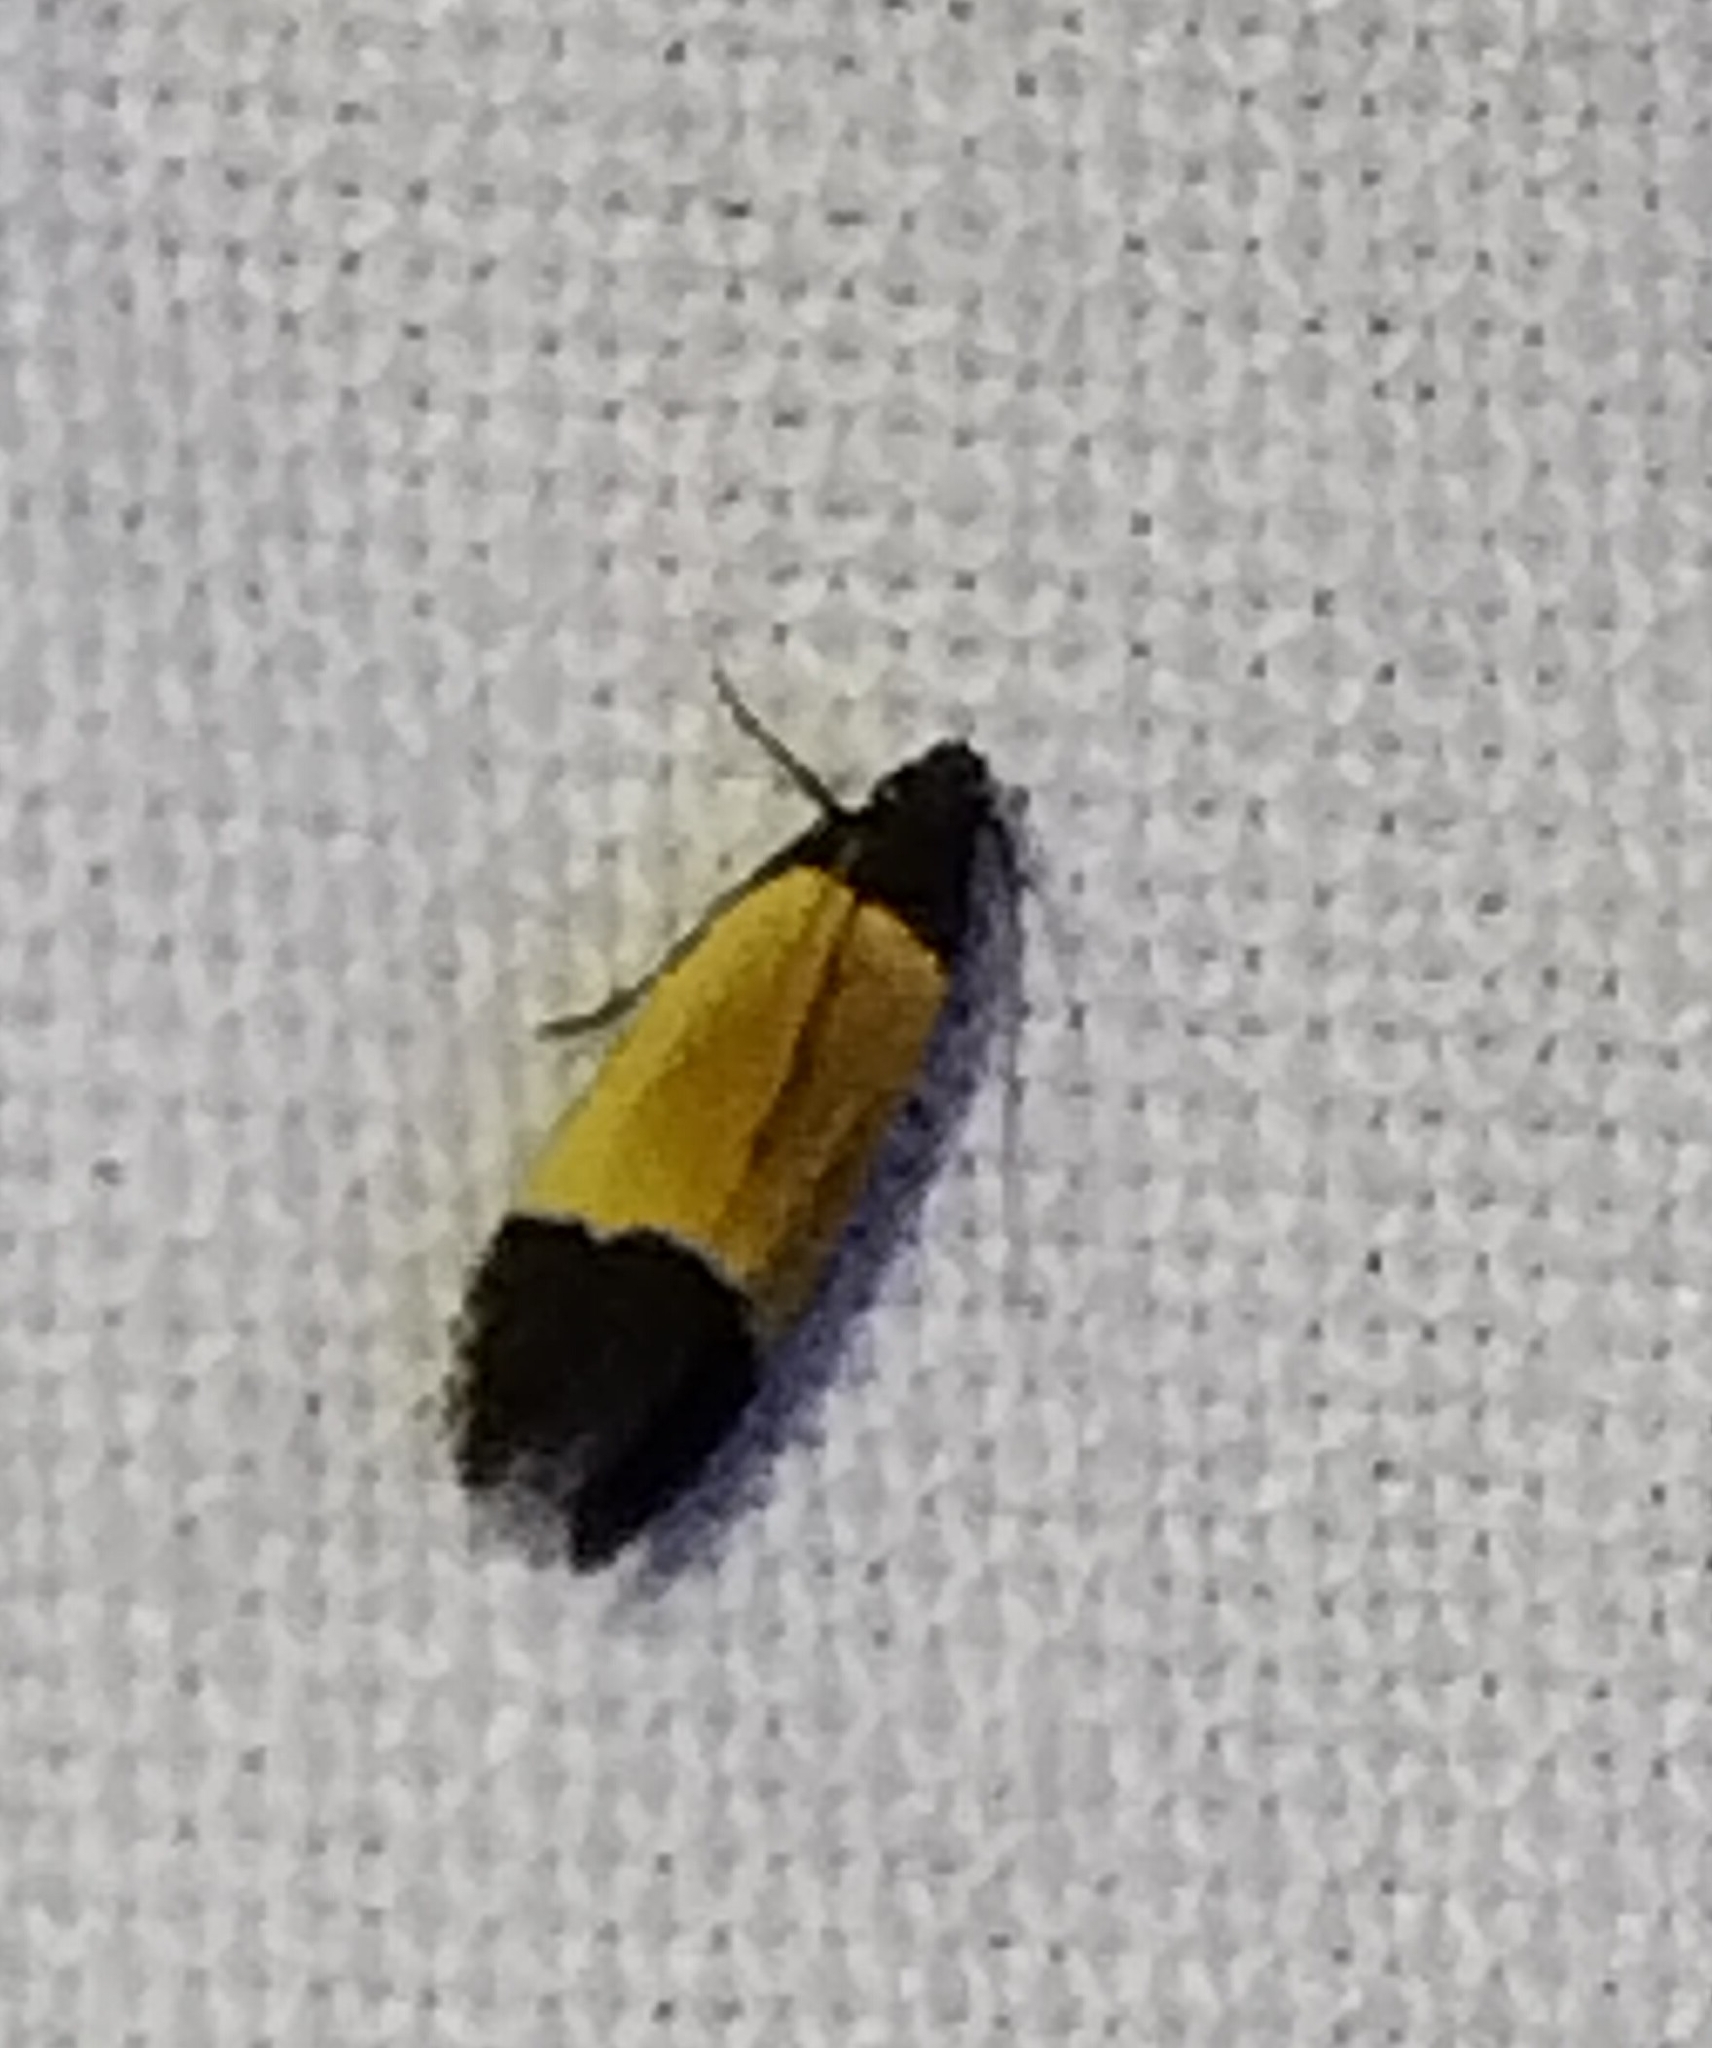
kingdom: Animalia
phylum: Arthropoda
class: Insecta
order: Lepidoptera
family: Gelechiidae
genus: Anacampsis
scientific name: Anacampsis coverdalella
